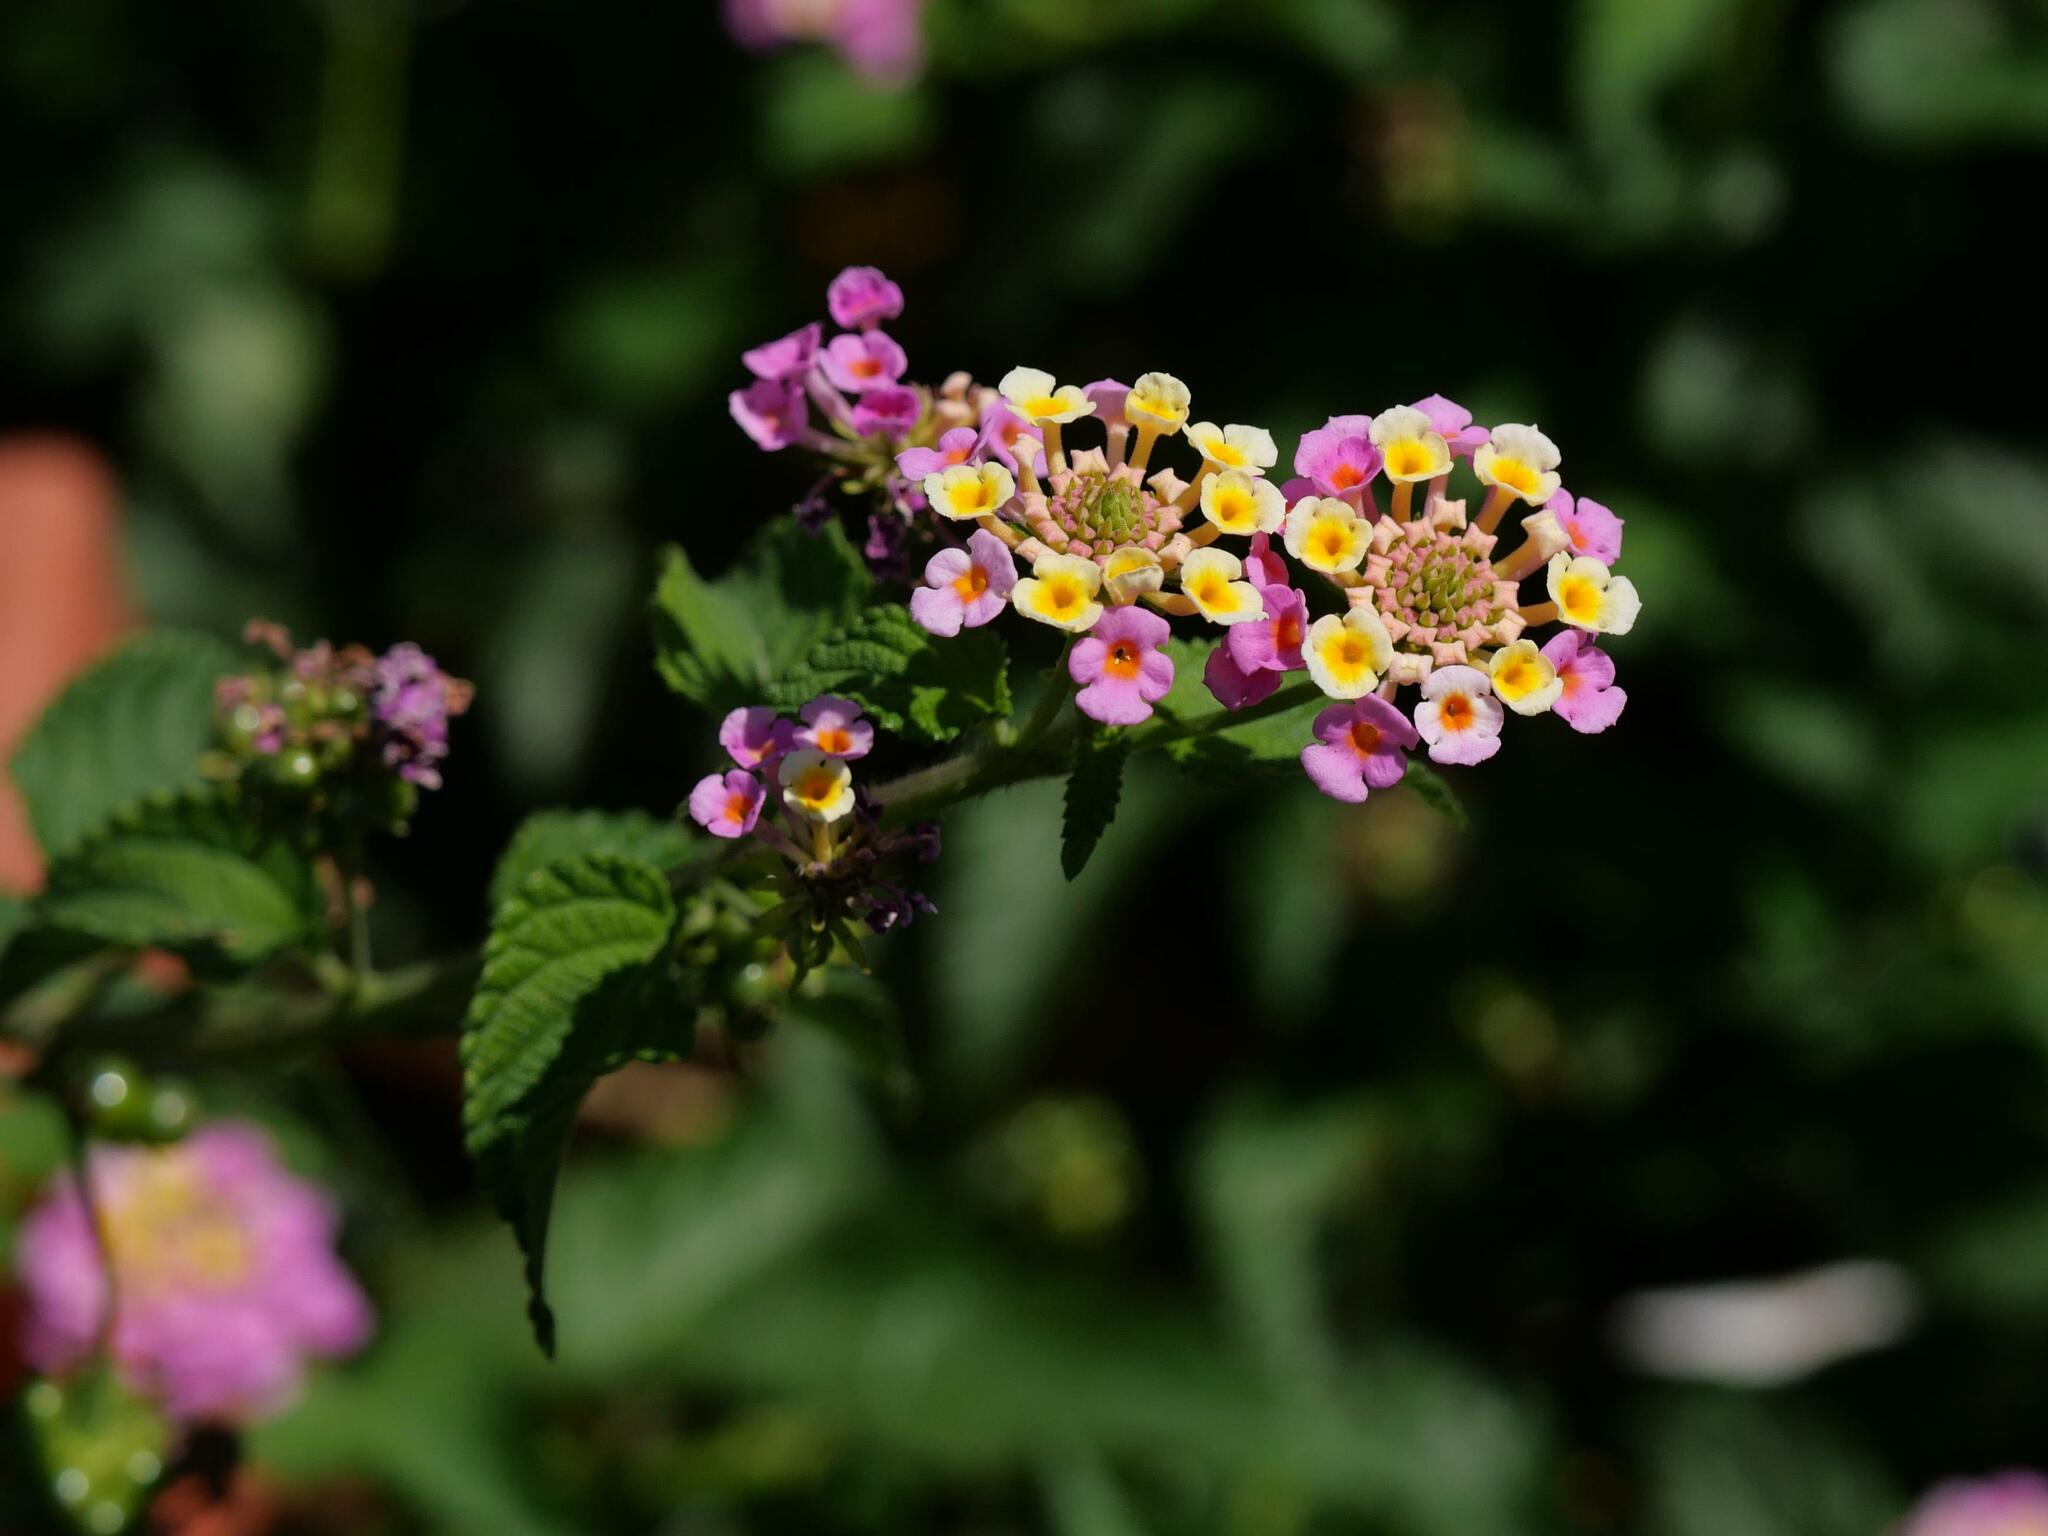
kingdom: Plantae
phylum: Tracheophyta
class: Magnoliopsida
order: Lamiales
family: Verbenaceae
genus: Lantana
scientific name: Lantana camara
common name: Lantana
